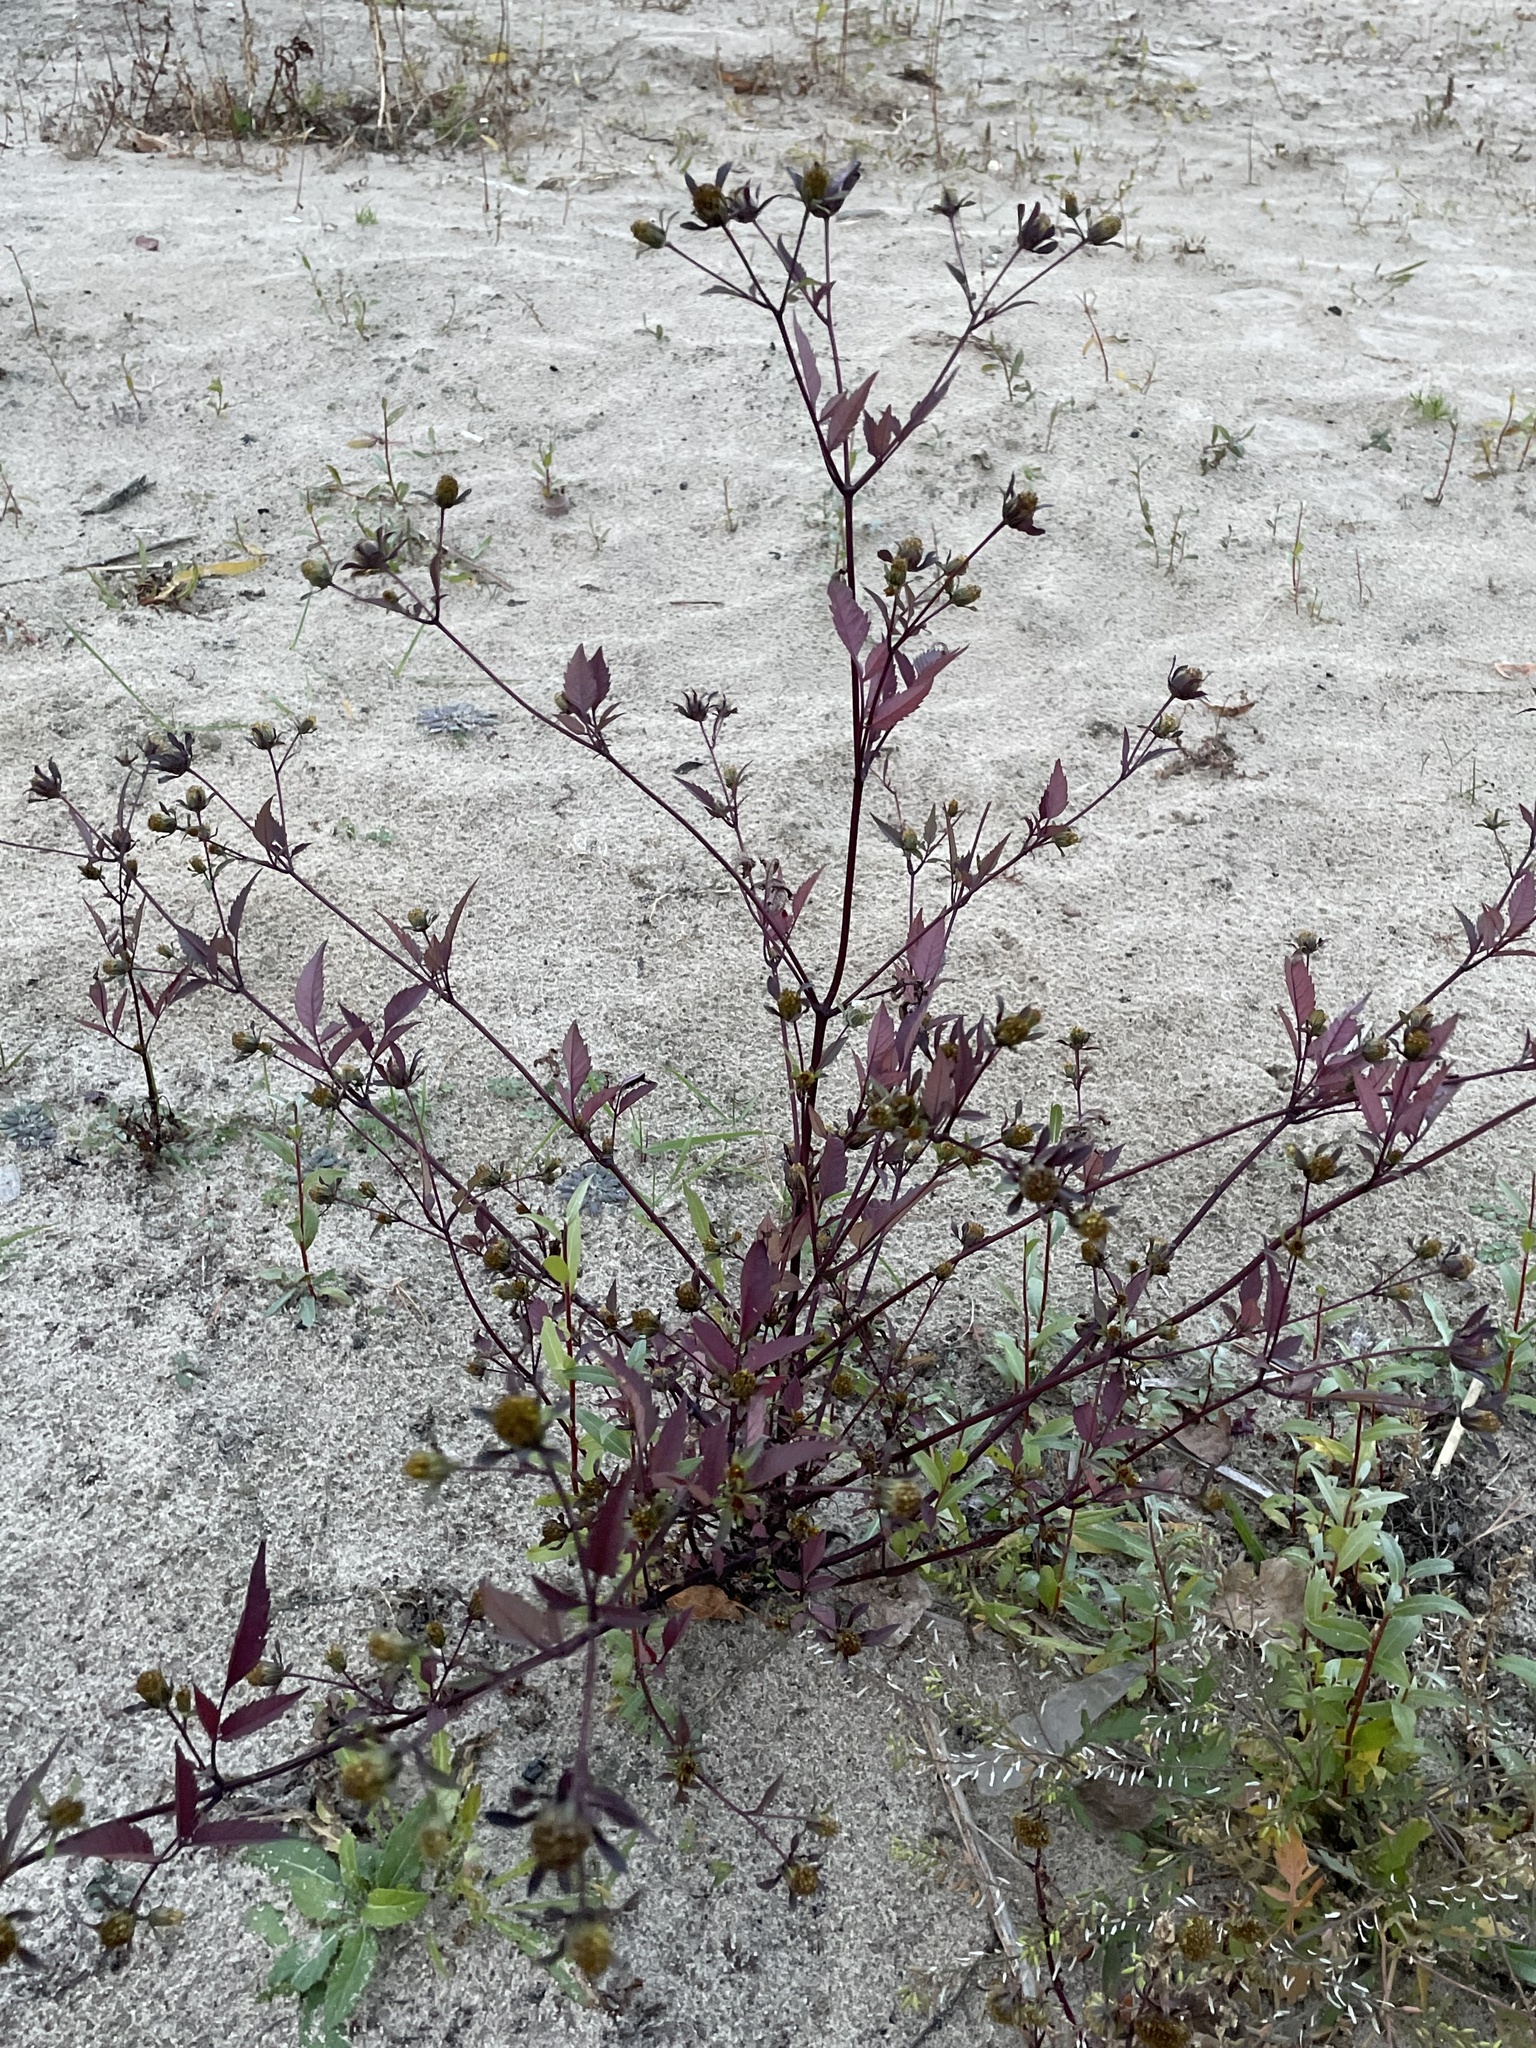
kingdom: Plantae
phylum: Tracheophyta
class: Magnoliopsida
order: Asterales
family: Asteraceae
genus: Bidens
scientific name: Bidens frondosa
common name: Beggarticks
